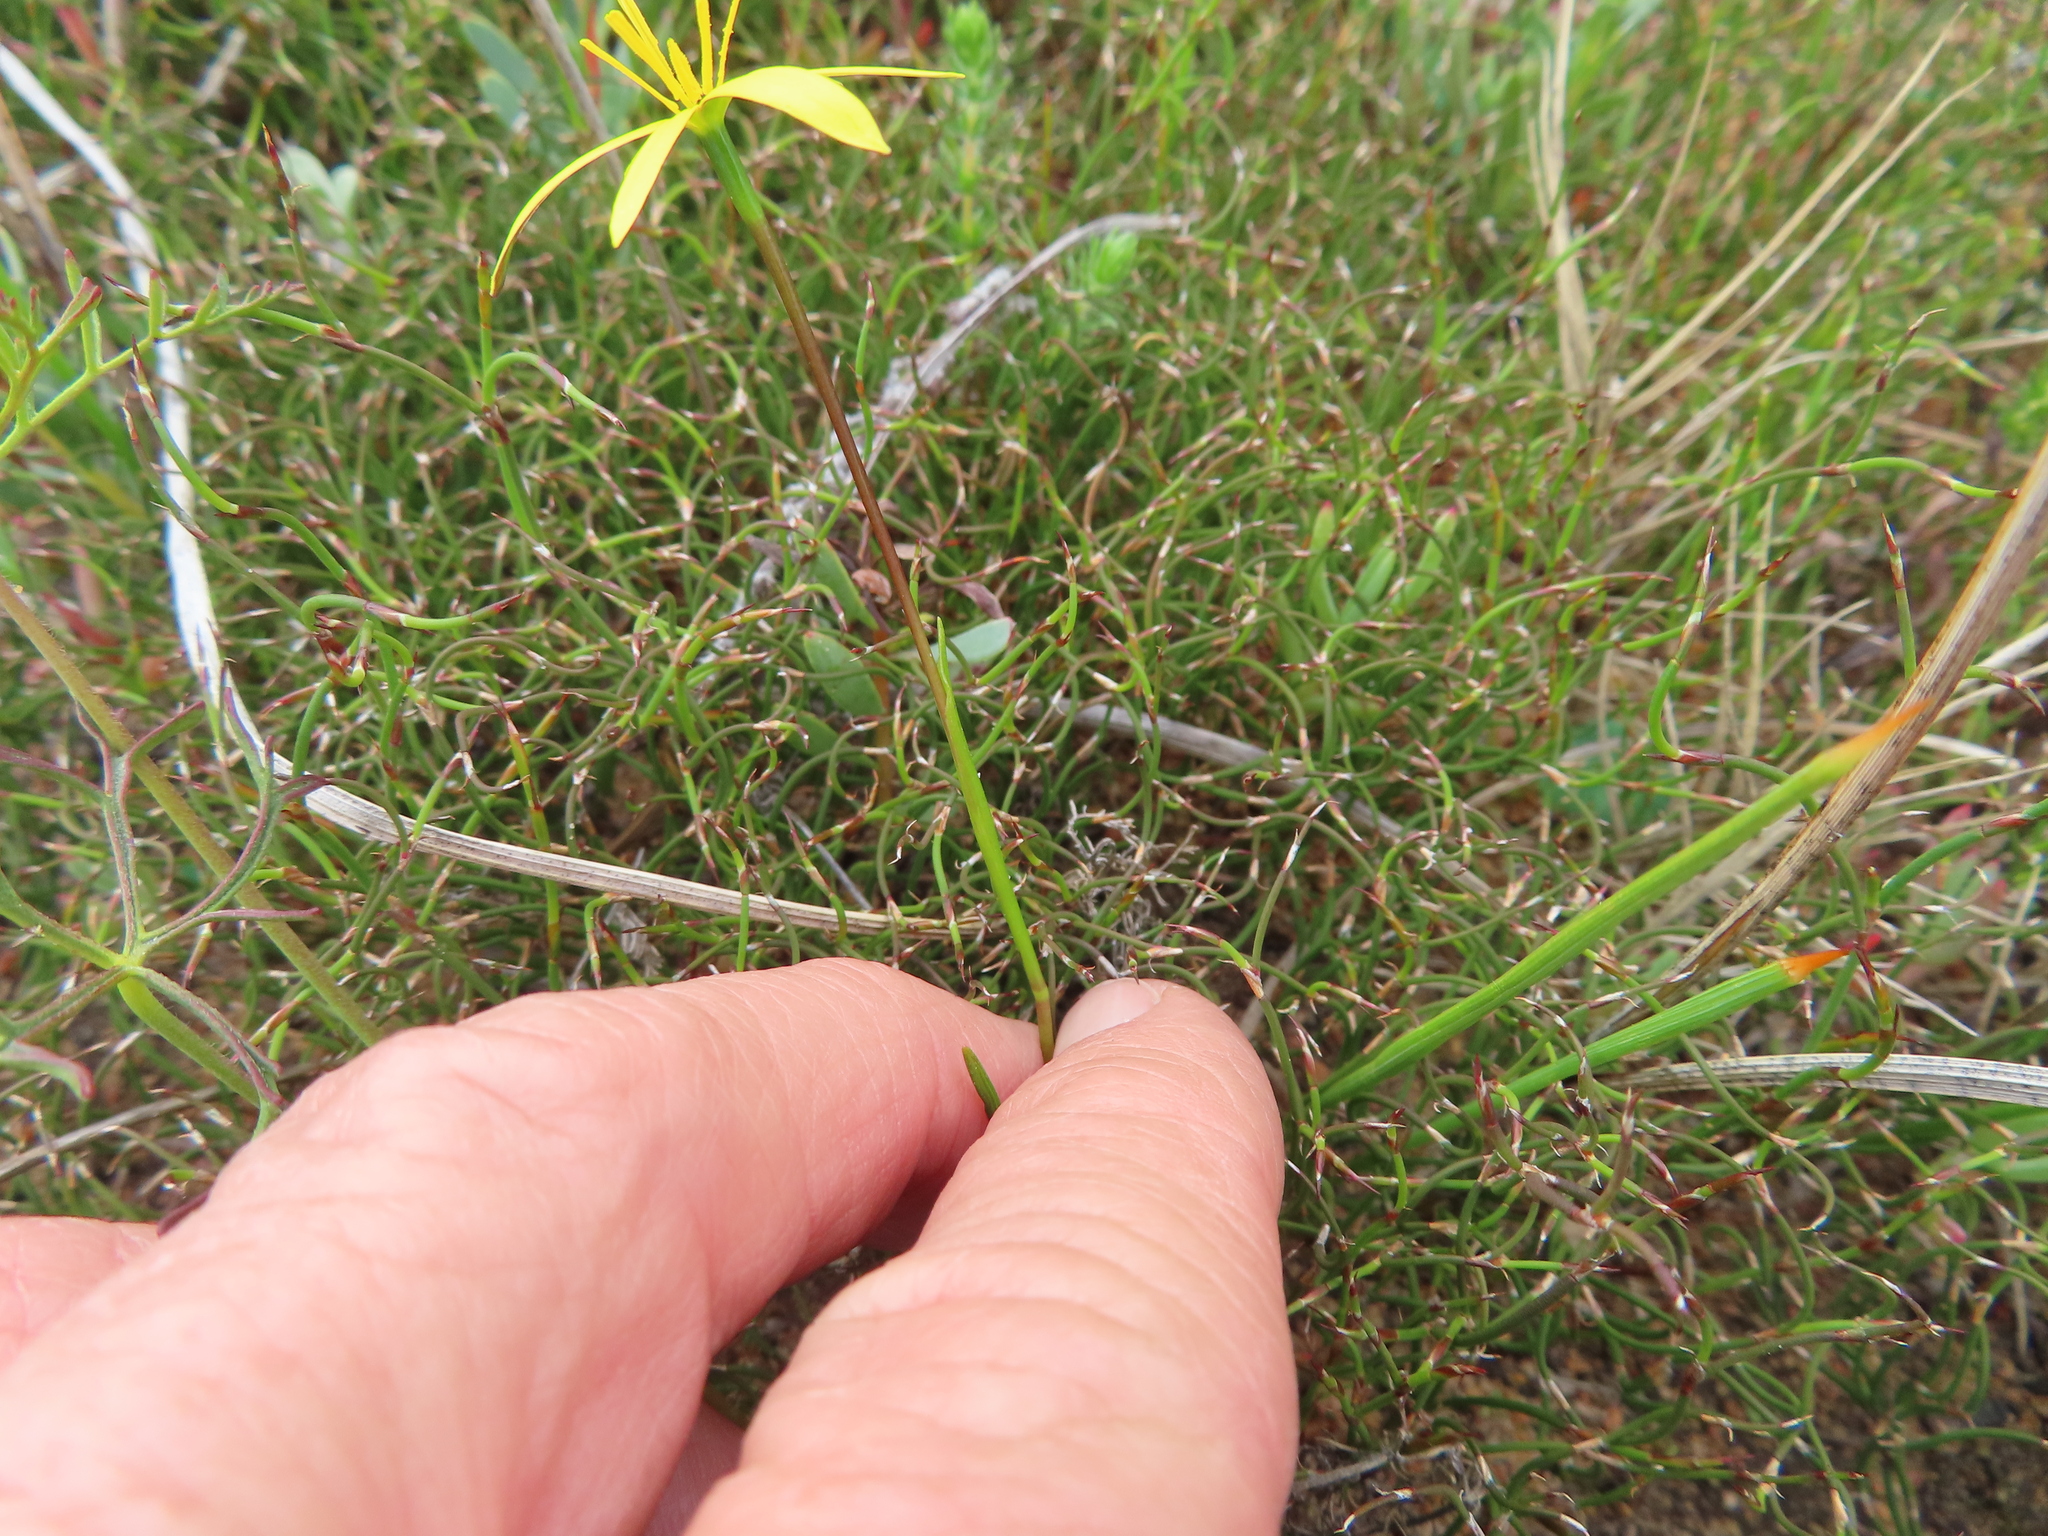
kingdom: Plantae
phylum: Tracheophyta
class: Liliopsida
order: Asparagales
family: Hypoxidaceae
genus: Pauridia
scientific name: Pauridia curculigoides
